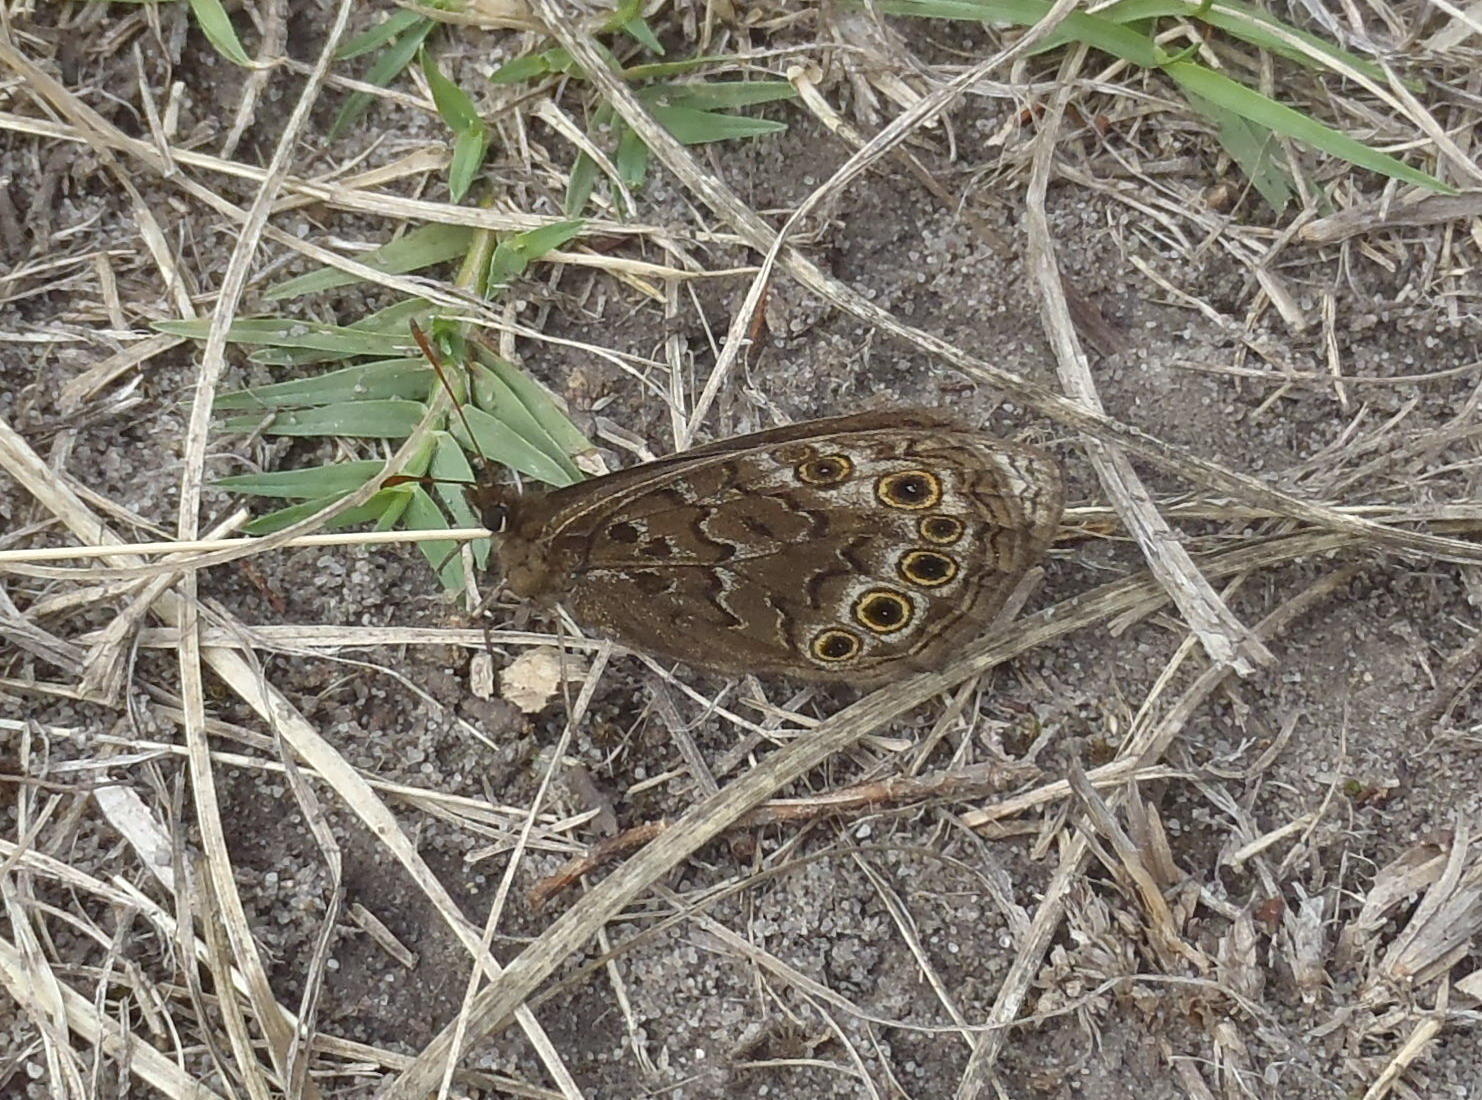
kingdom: Animalia
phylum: Arthropoda
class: Insecta
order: Lepidoptera
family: Nymphalidae
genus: Dira
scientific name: Dira clytus
